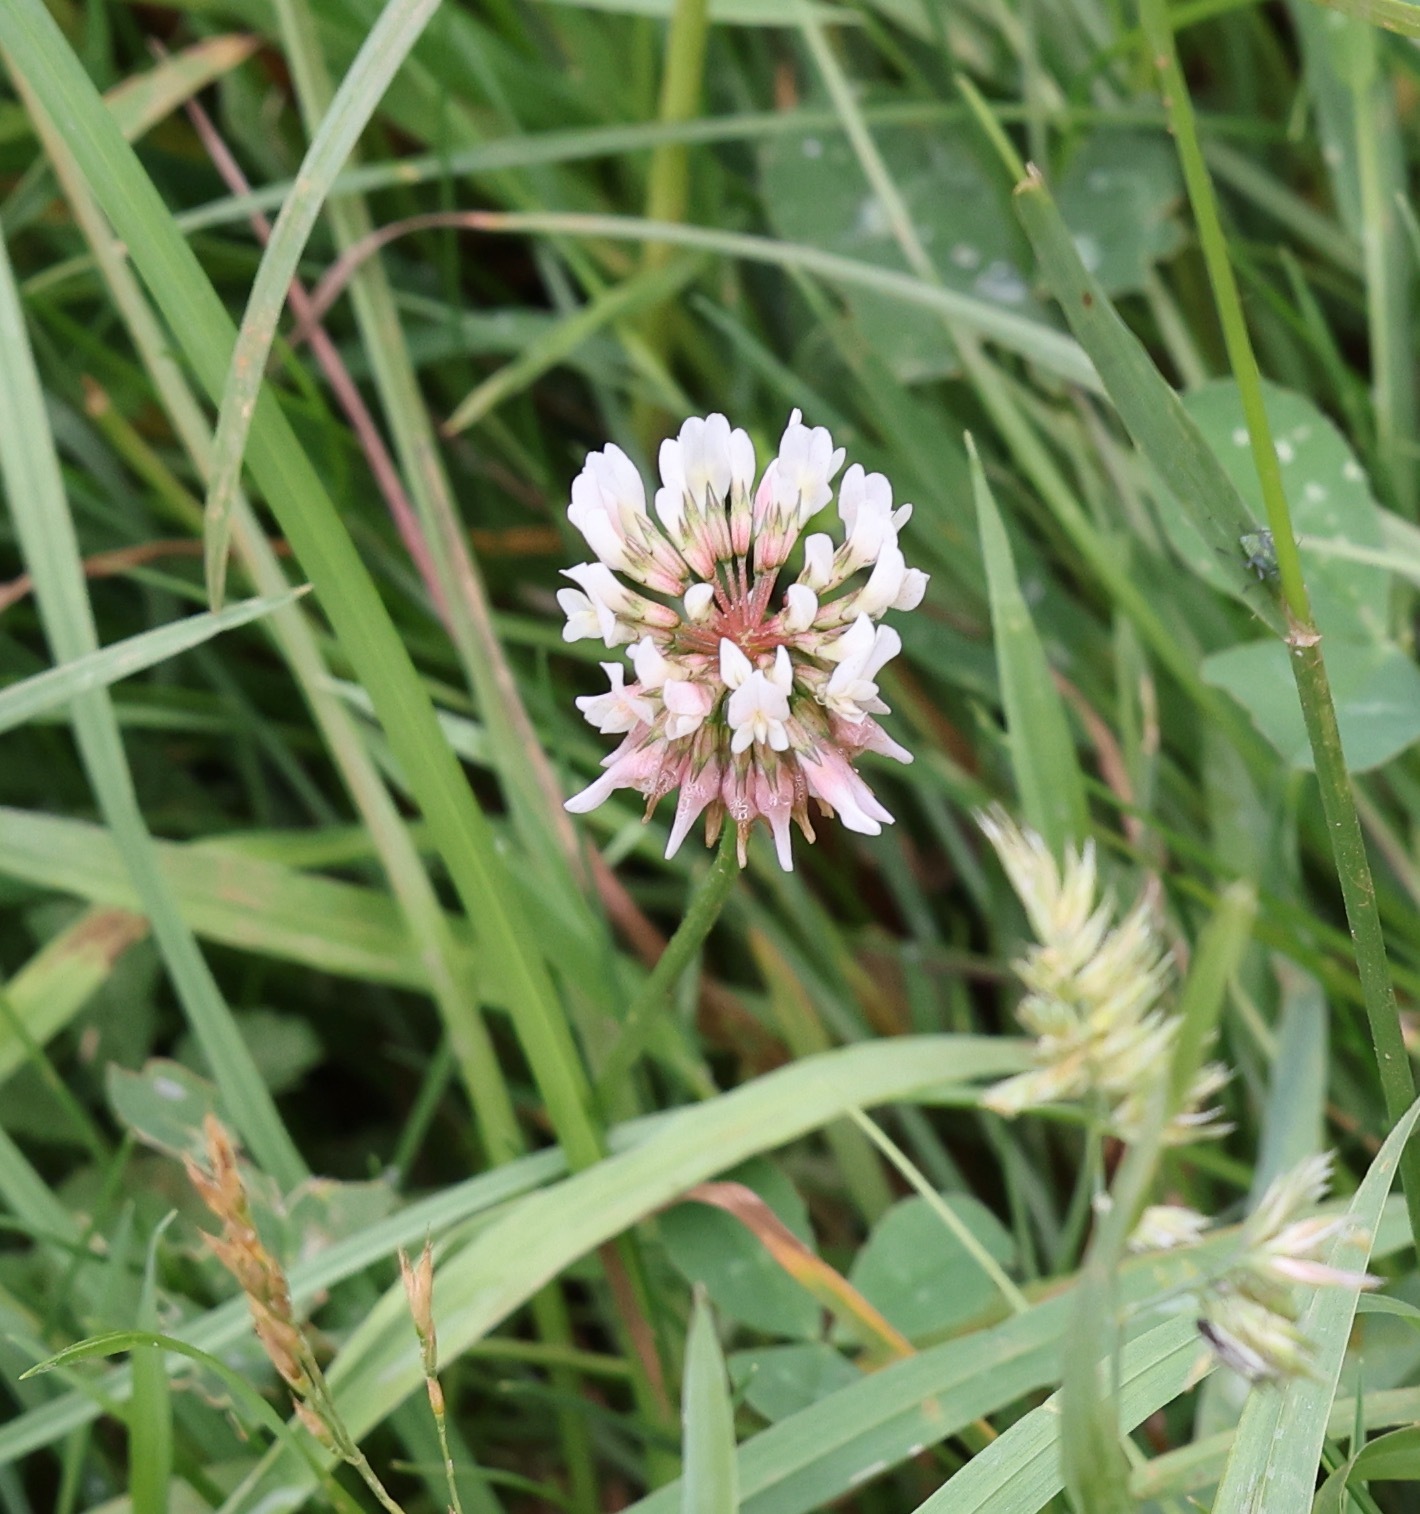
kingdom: Plantae
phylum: Tracheophyta
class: Magnoliopsida
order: Fabales
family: Fabaceae
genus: Trifolium
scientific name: Trifolium repens
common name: White clover
